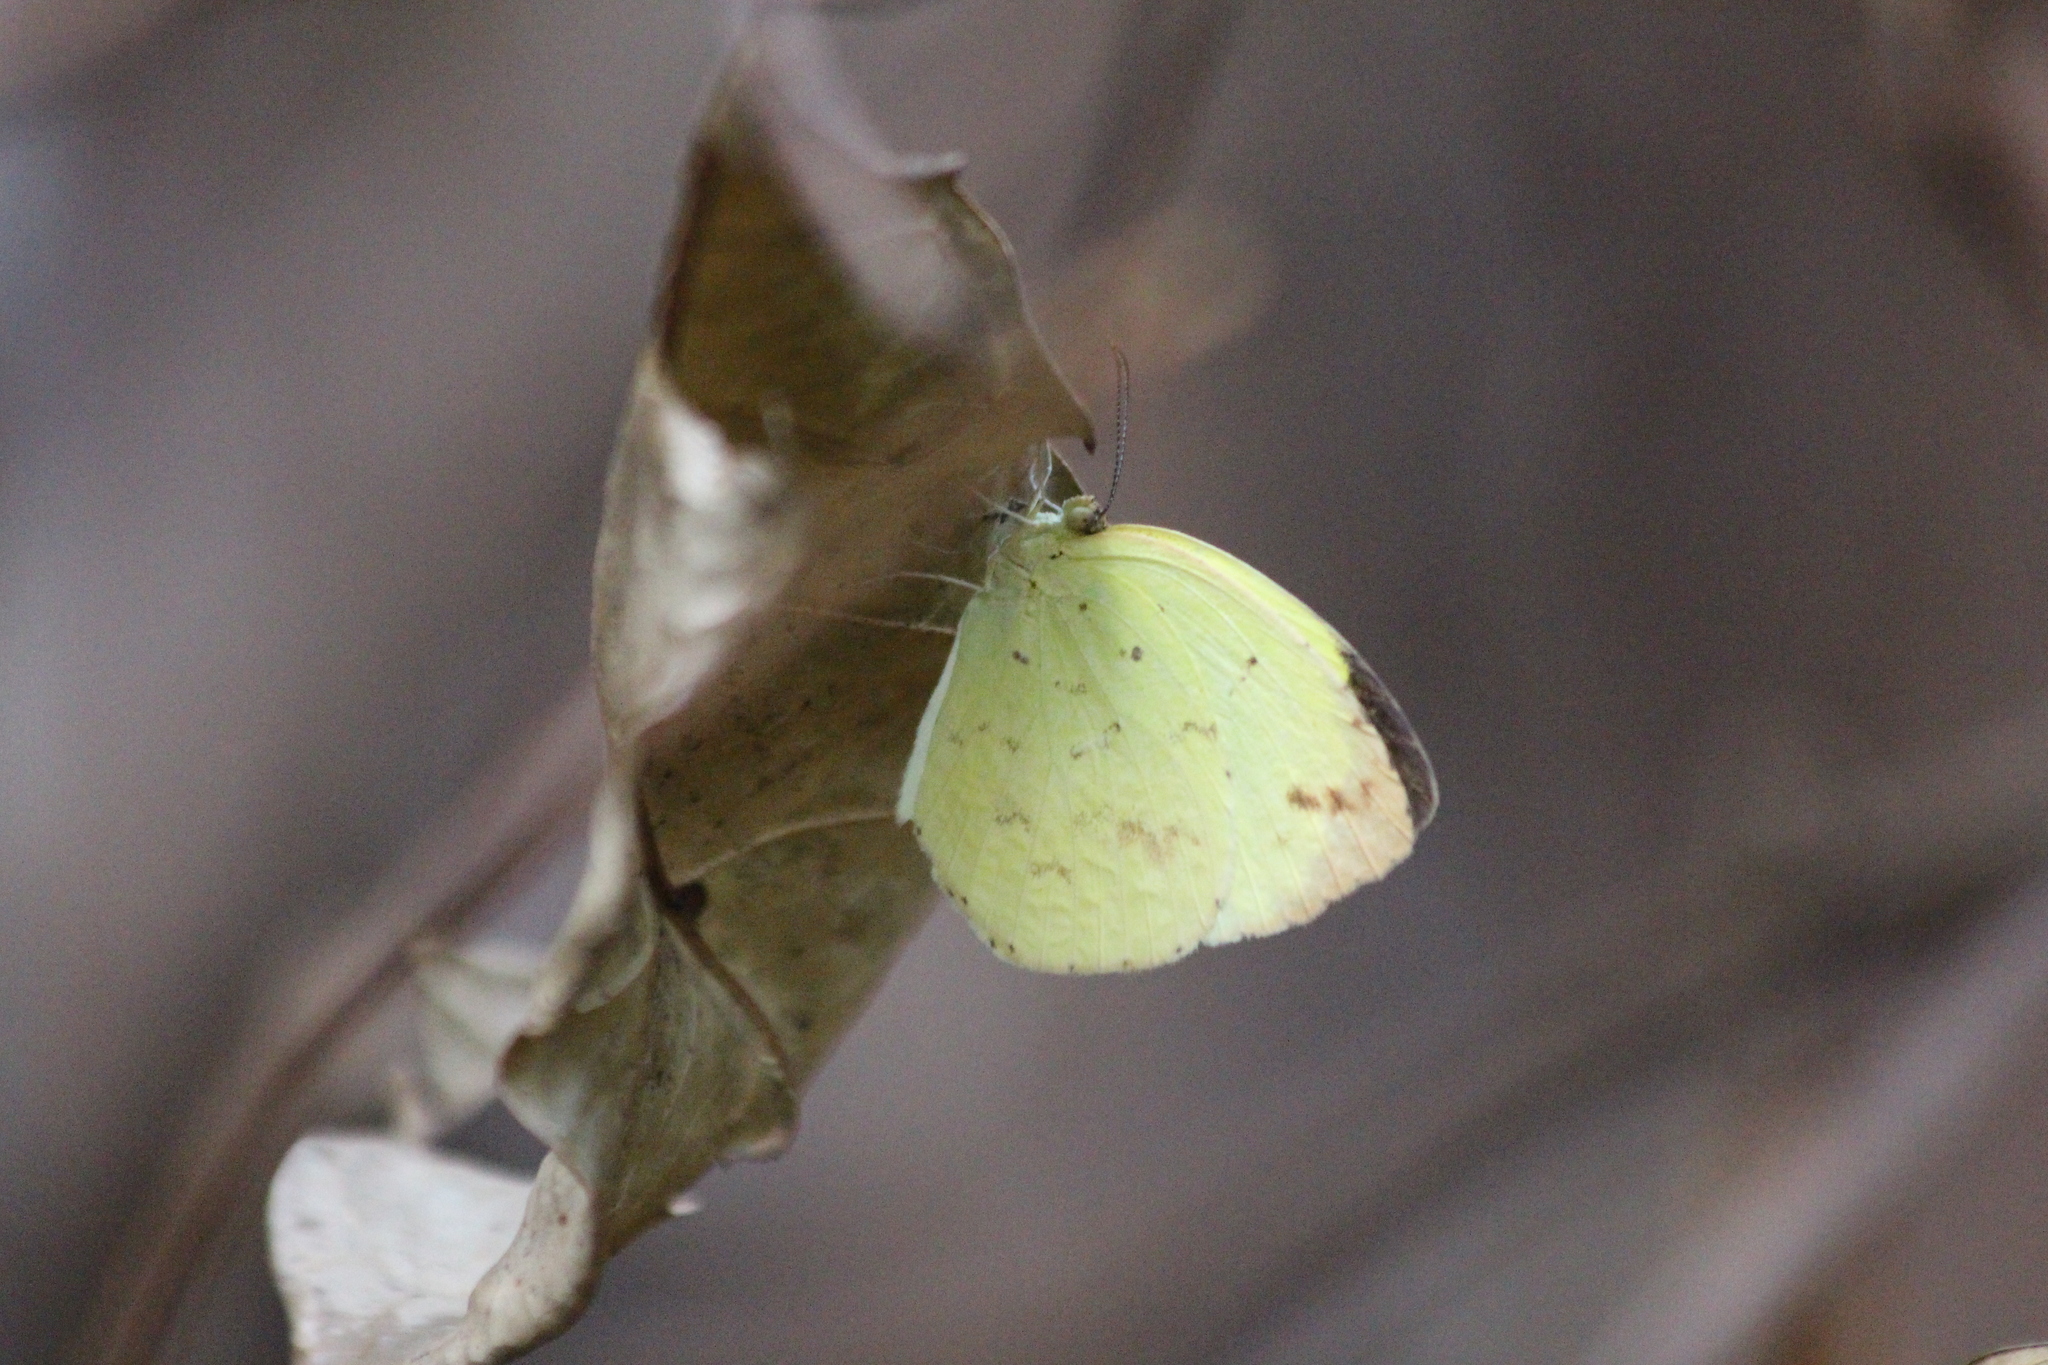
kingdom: Animalia
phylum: Arthropoda
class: Insecta
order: Lepidoptera
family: Pieridae
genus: Eurema
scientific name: Eurema regularis
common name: Regular grass yellow
